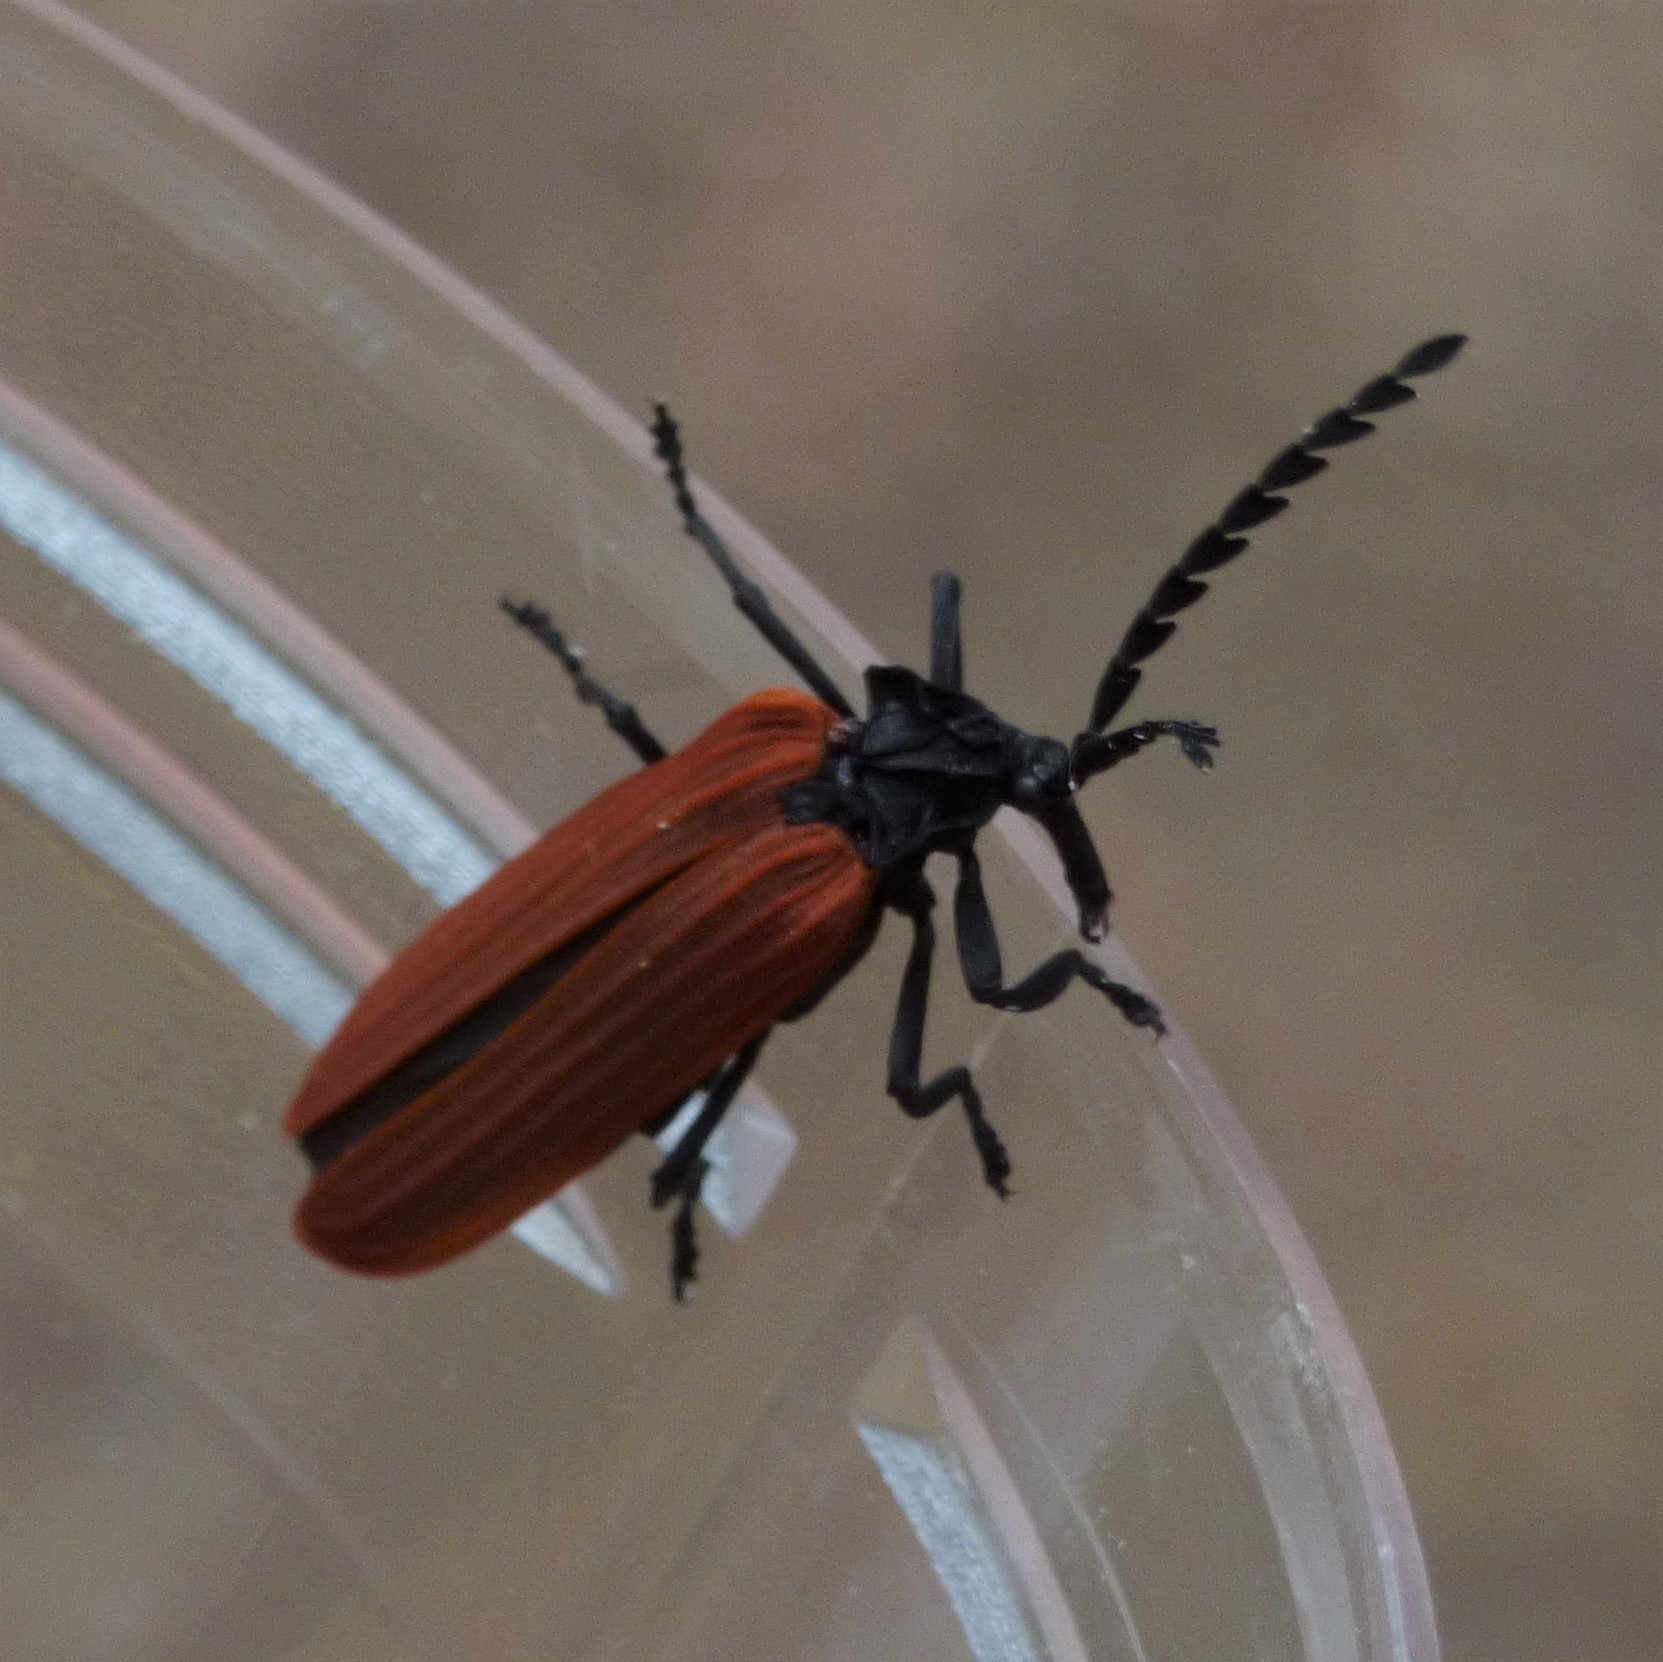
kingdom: Animalia
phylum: Arthropoda
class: Insecta
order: Coleoptera
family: Lycidae
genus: Porrostoma
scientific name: Porrostoma rhipidium
